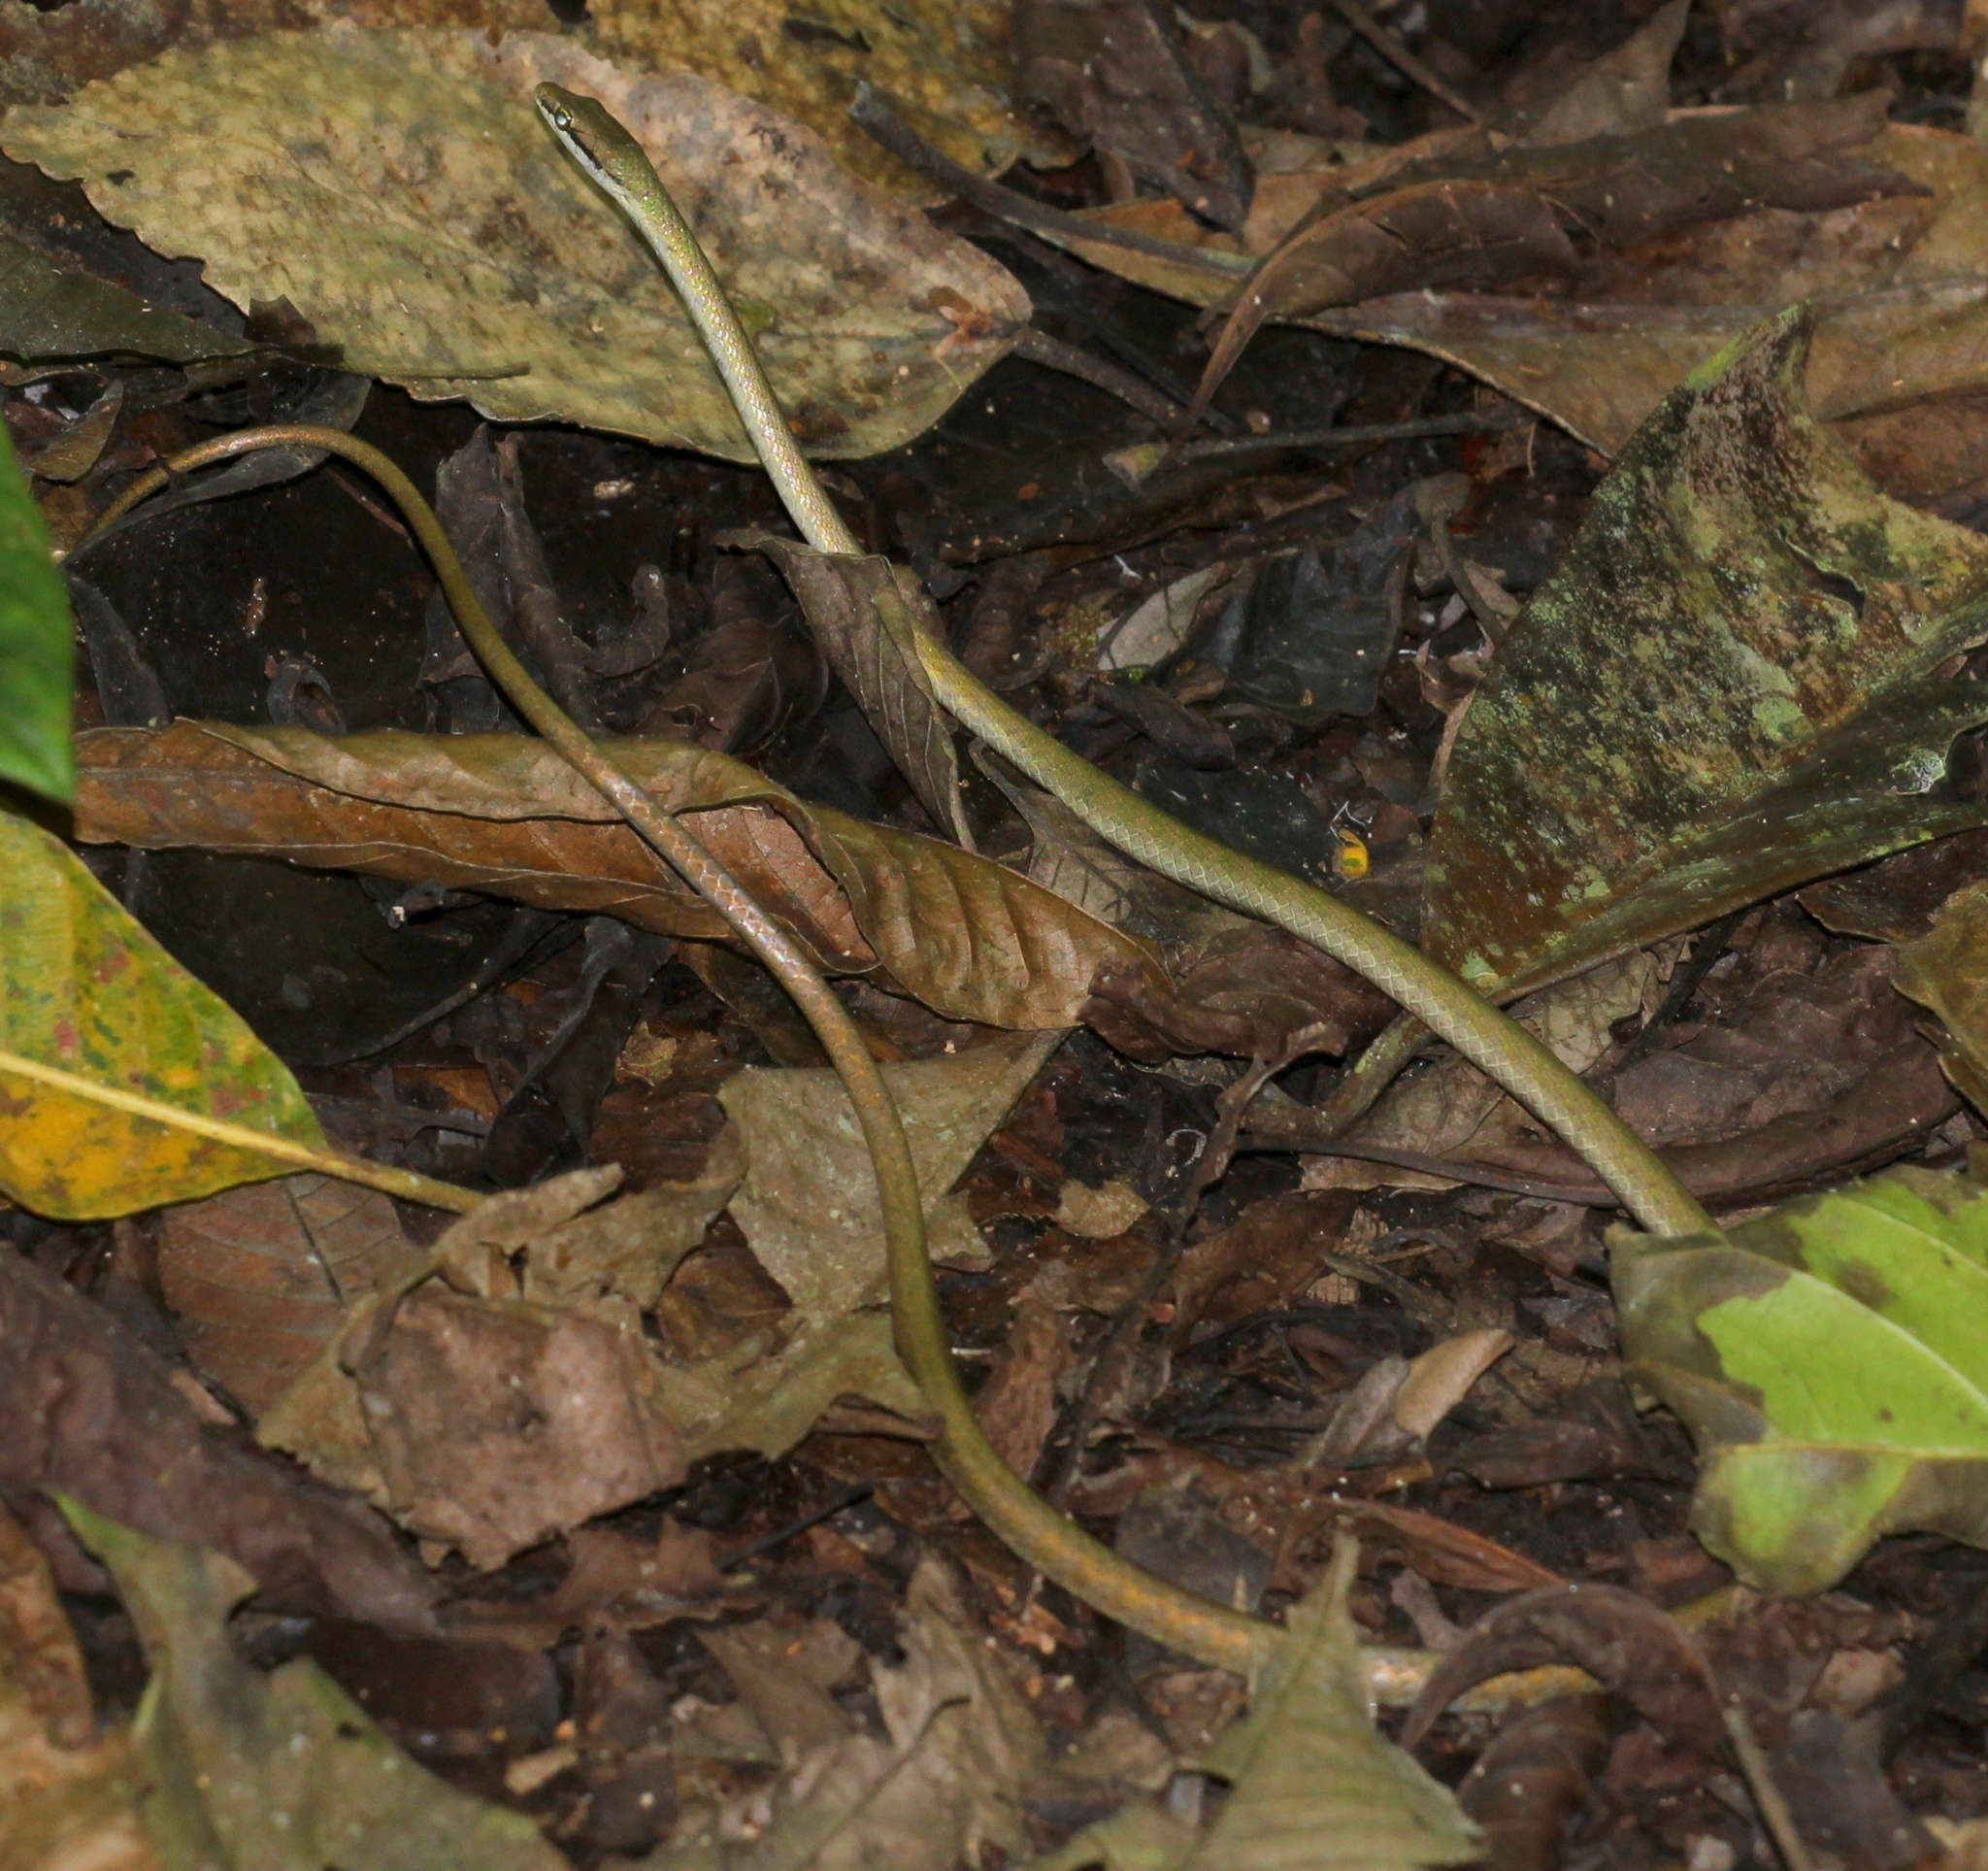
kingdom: Animalia
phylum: Chordata
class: Squamata
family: Colubridae
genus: Leptophis
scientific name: Leptophis cupreus
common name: Copper parrot snake
